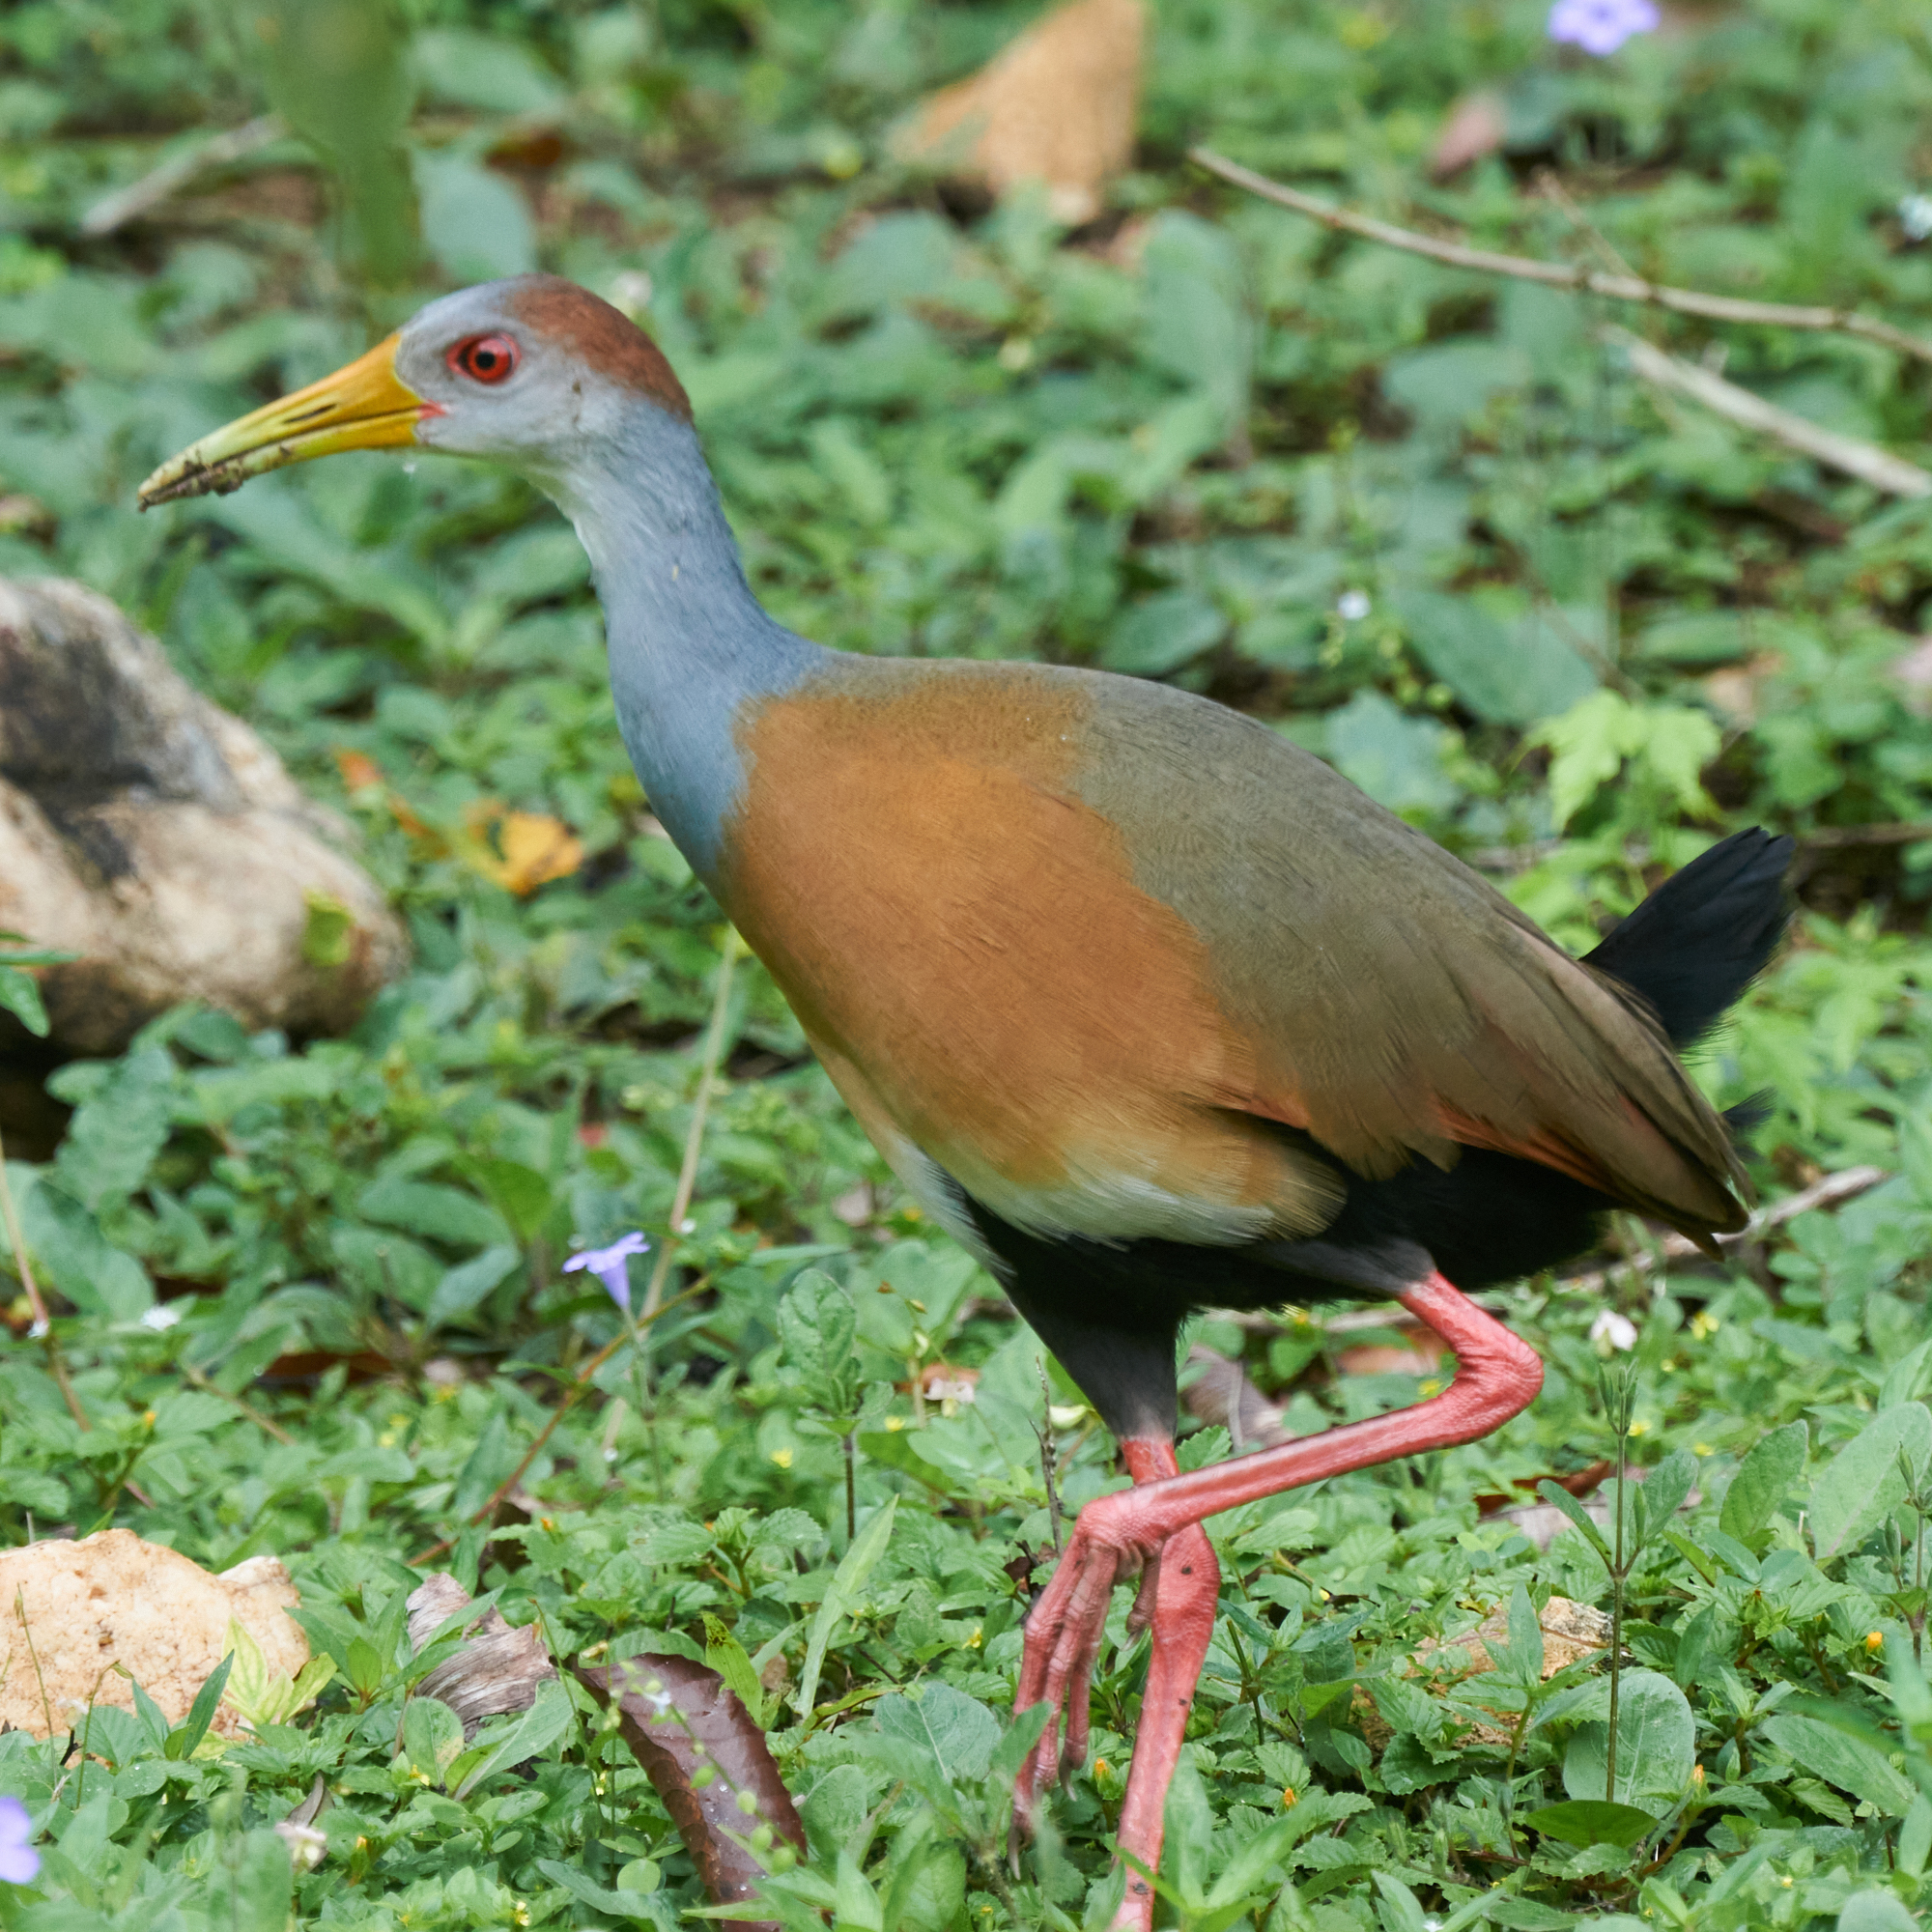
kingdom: Animalia
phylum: Chordata
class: Aves
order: Gruiformes
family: Rallidae
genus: Aramides
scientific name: Aramides albiventris
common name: Russet-naped wood-rail
